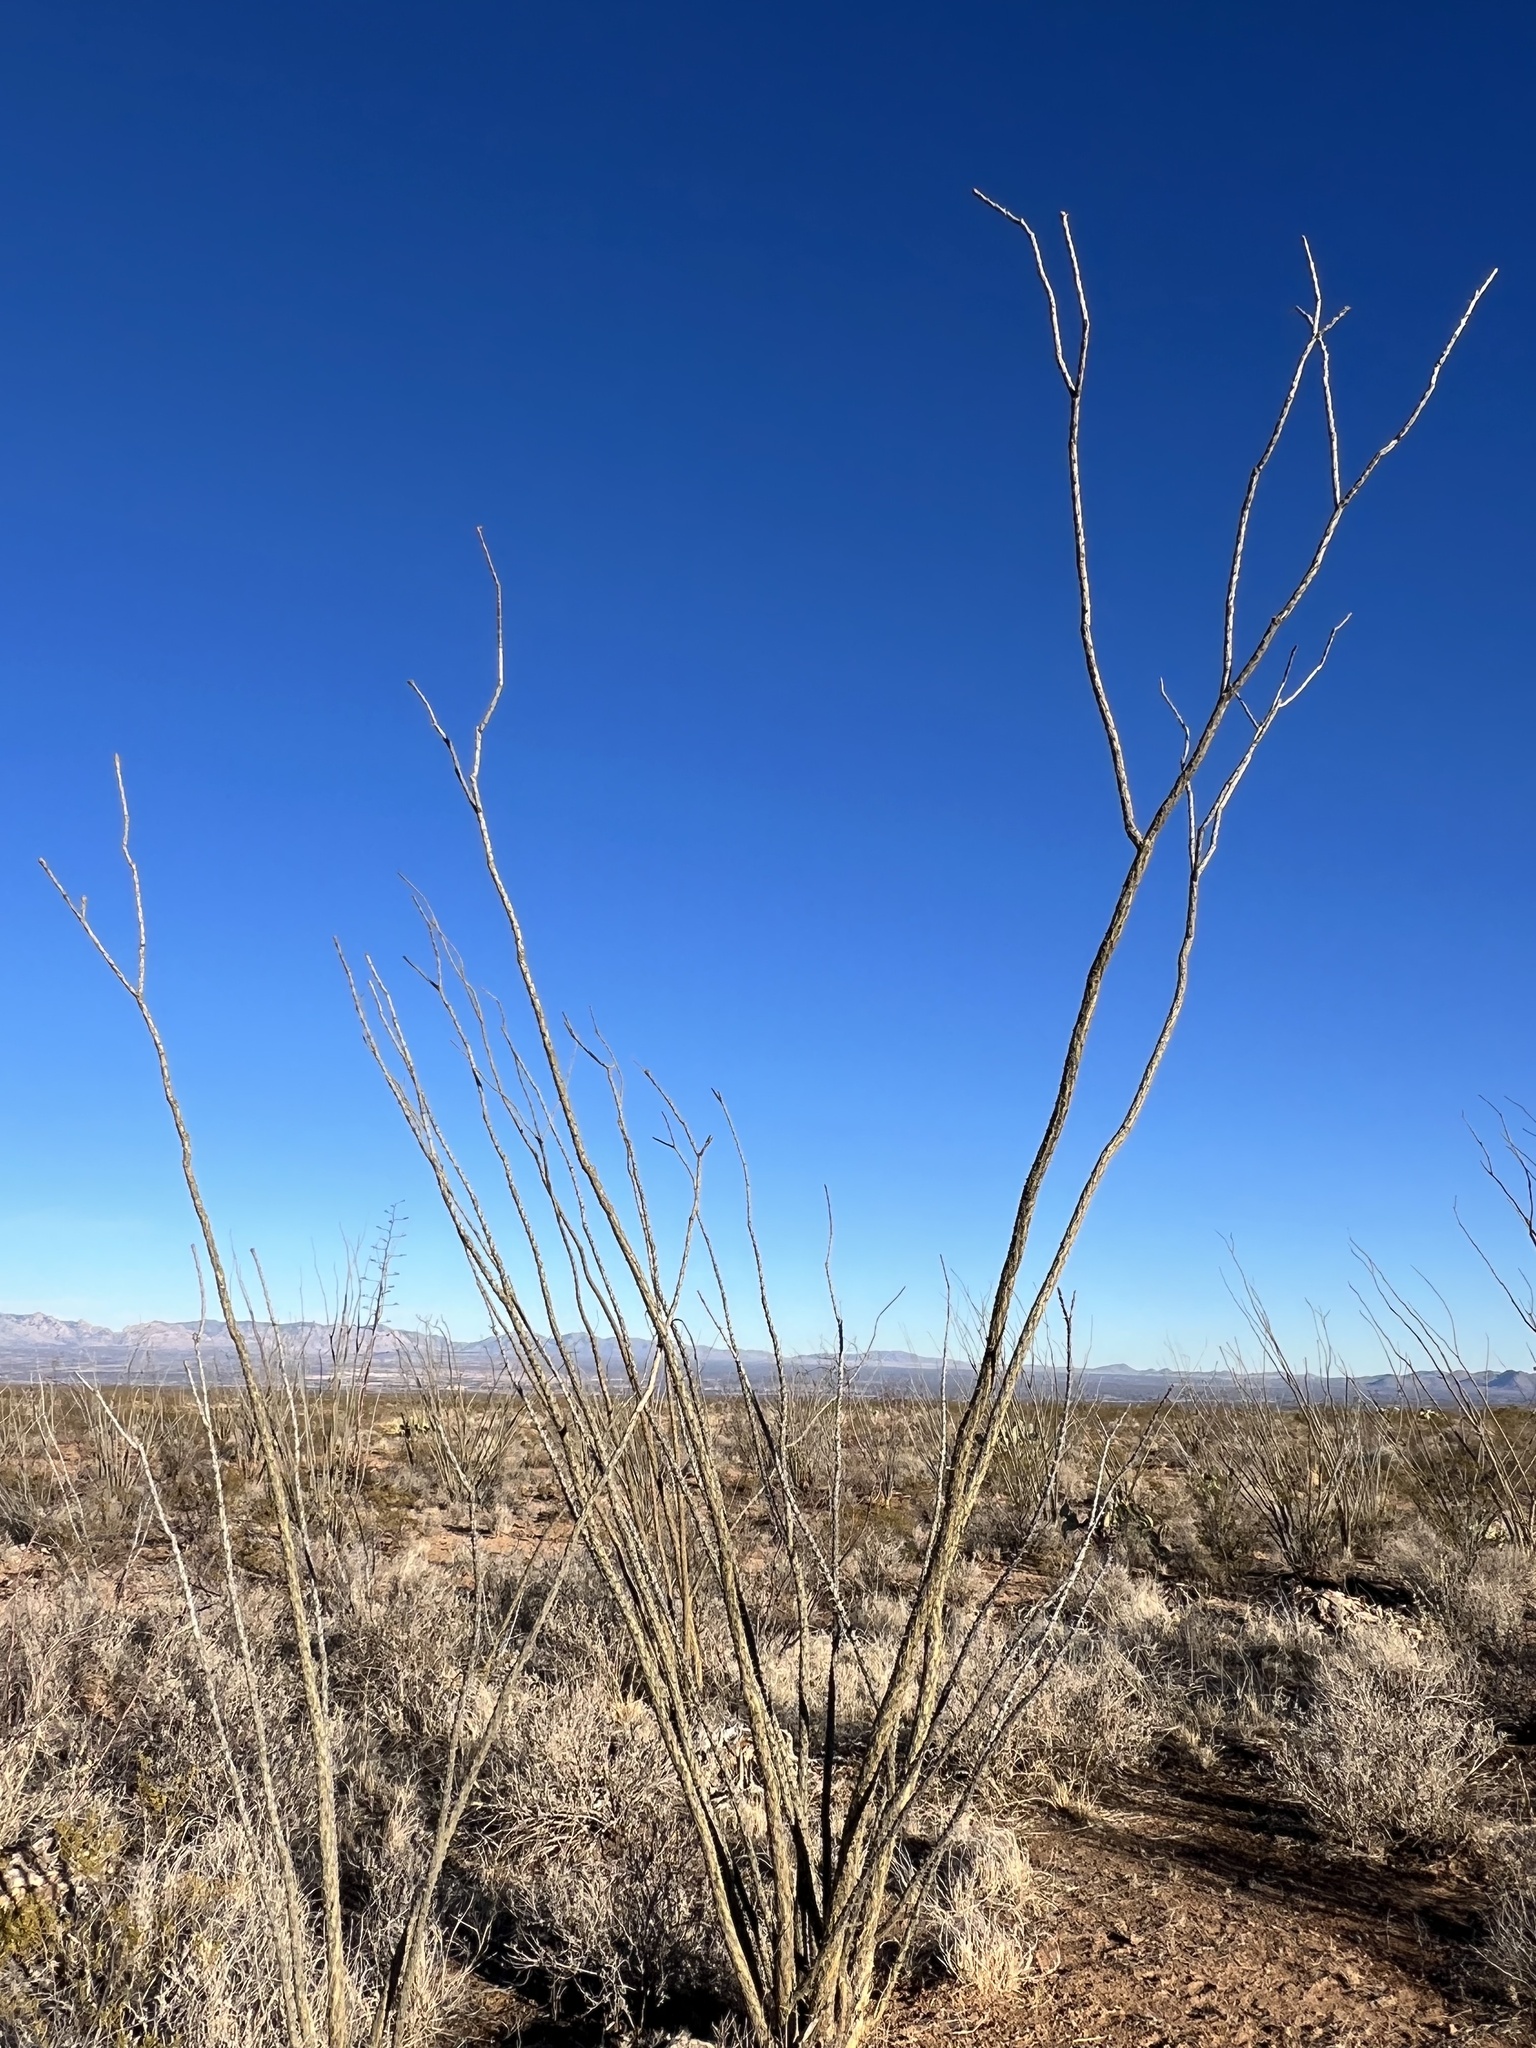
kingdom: Plantae
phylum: Tracheophyta
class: Magnoliopsida
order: Ericales
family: Fouquieriaceae
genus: Fouquieria
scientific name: Fouquieria splendens
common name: Vine-cactus
